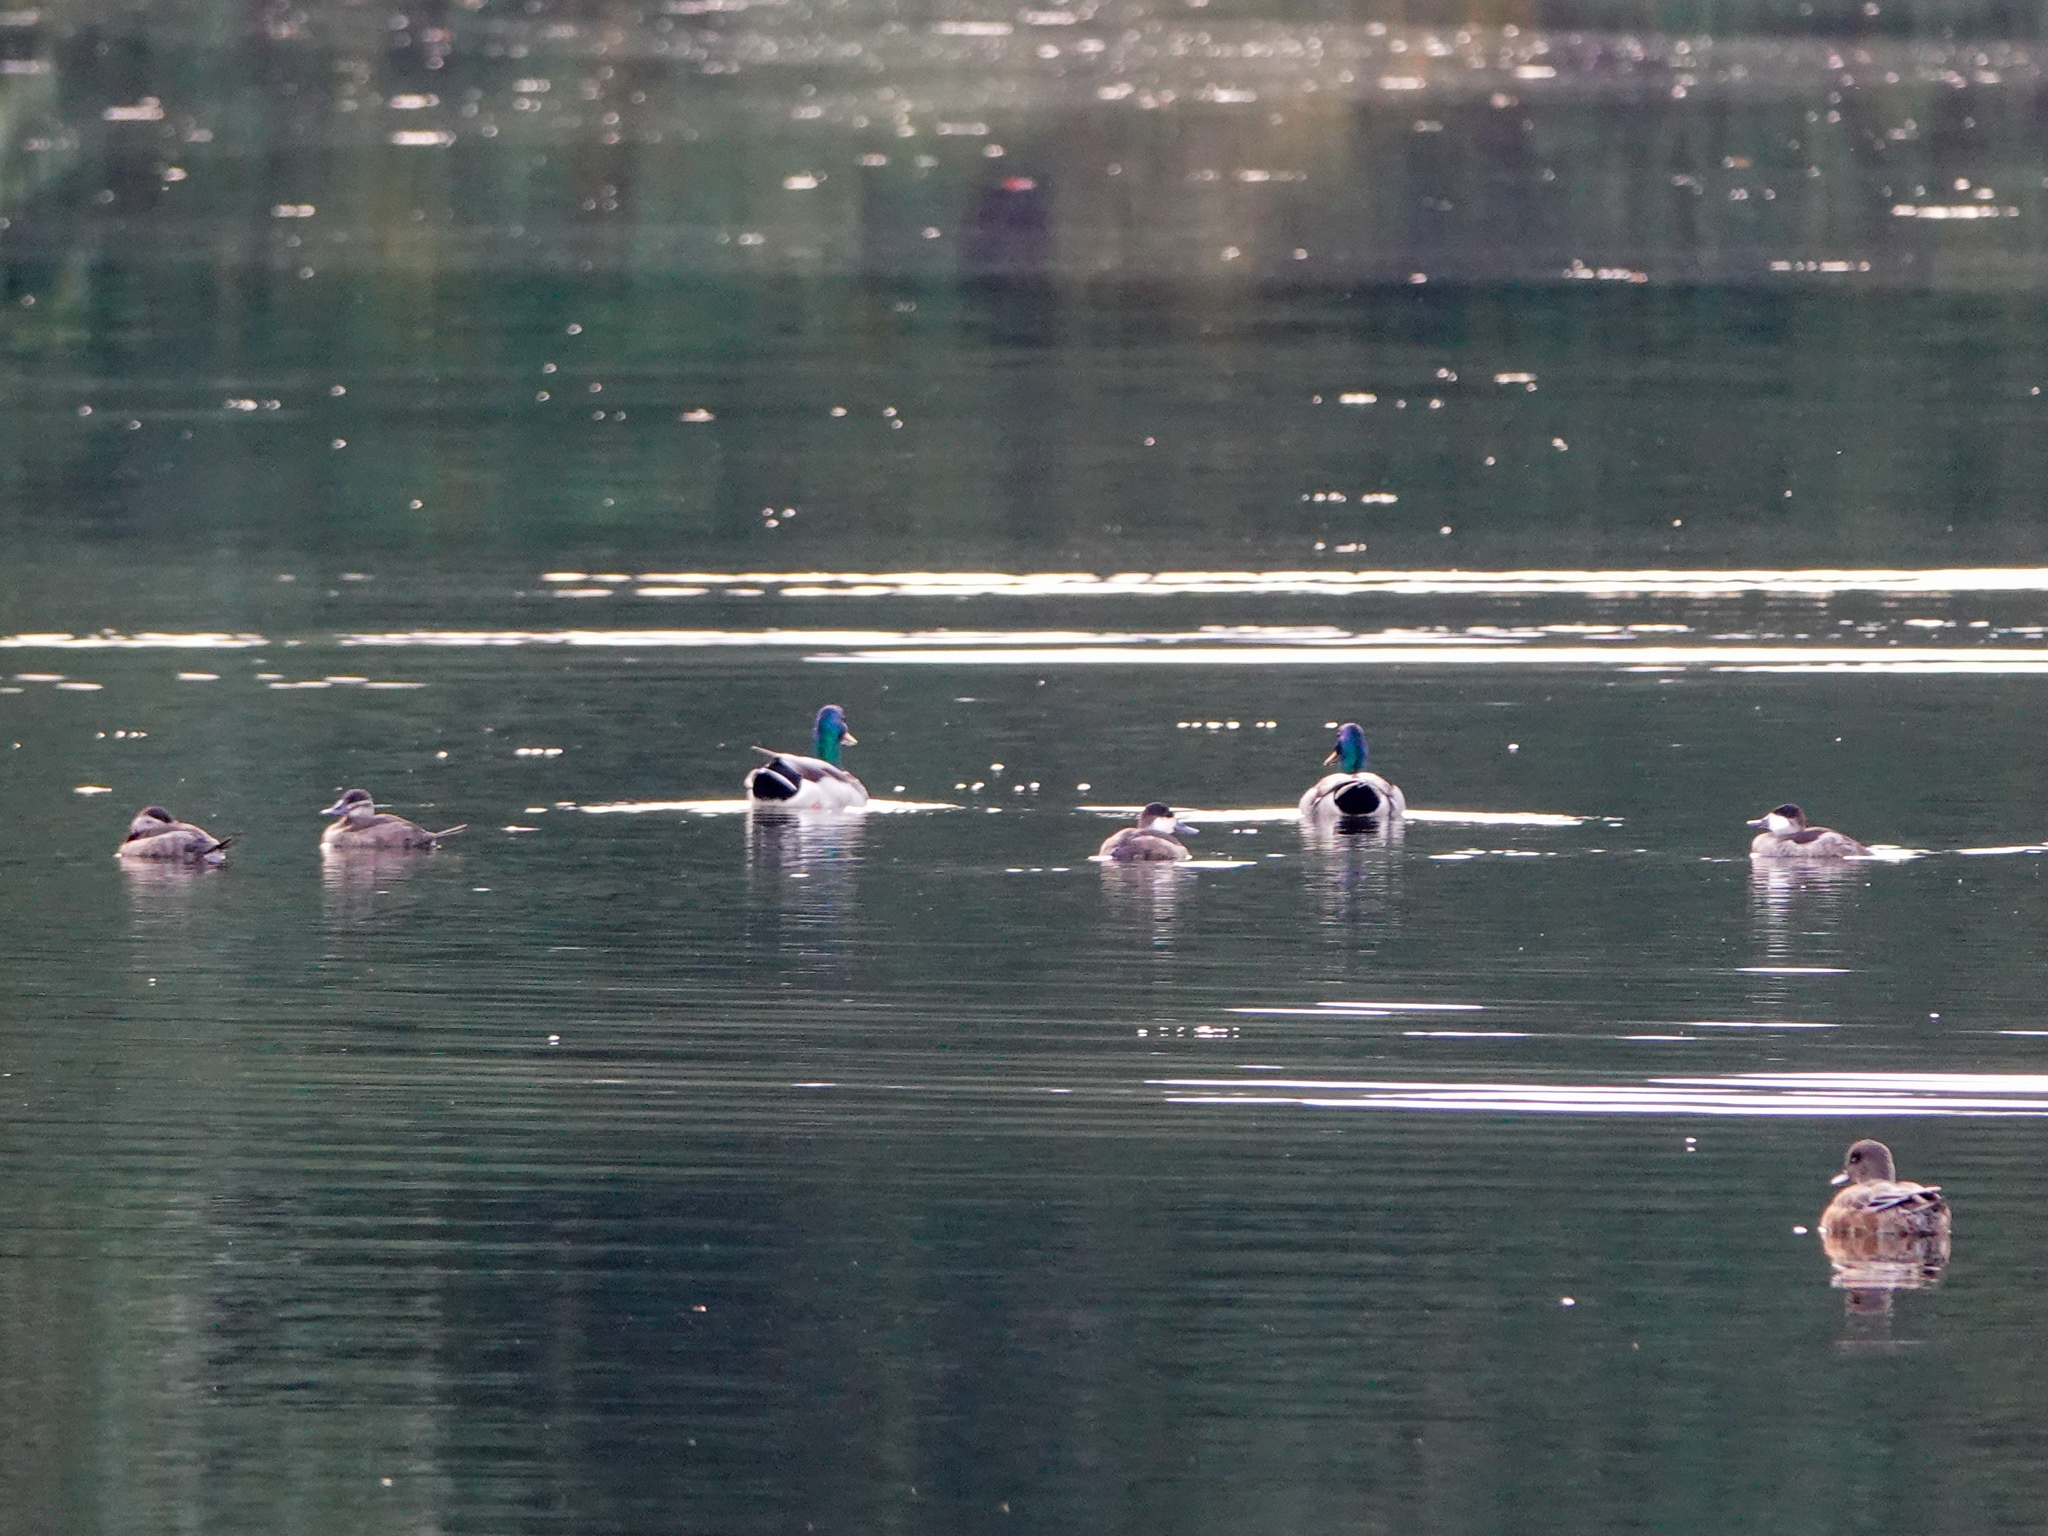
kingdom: Animalia
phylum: Chordata
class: Aves
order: Anseriformes
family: Anatidae
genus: Mareca
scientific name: Mareca americana
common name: American wigeon
